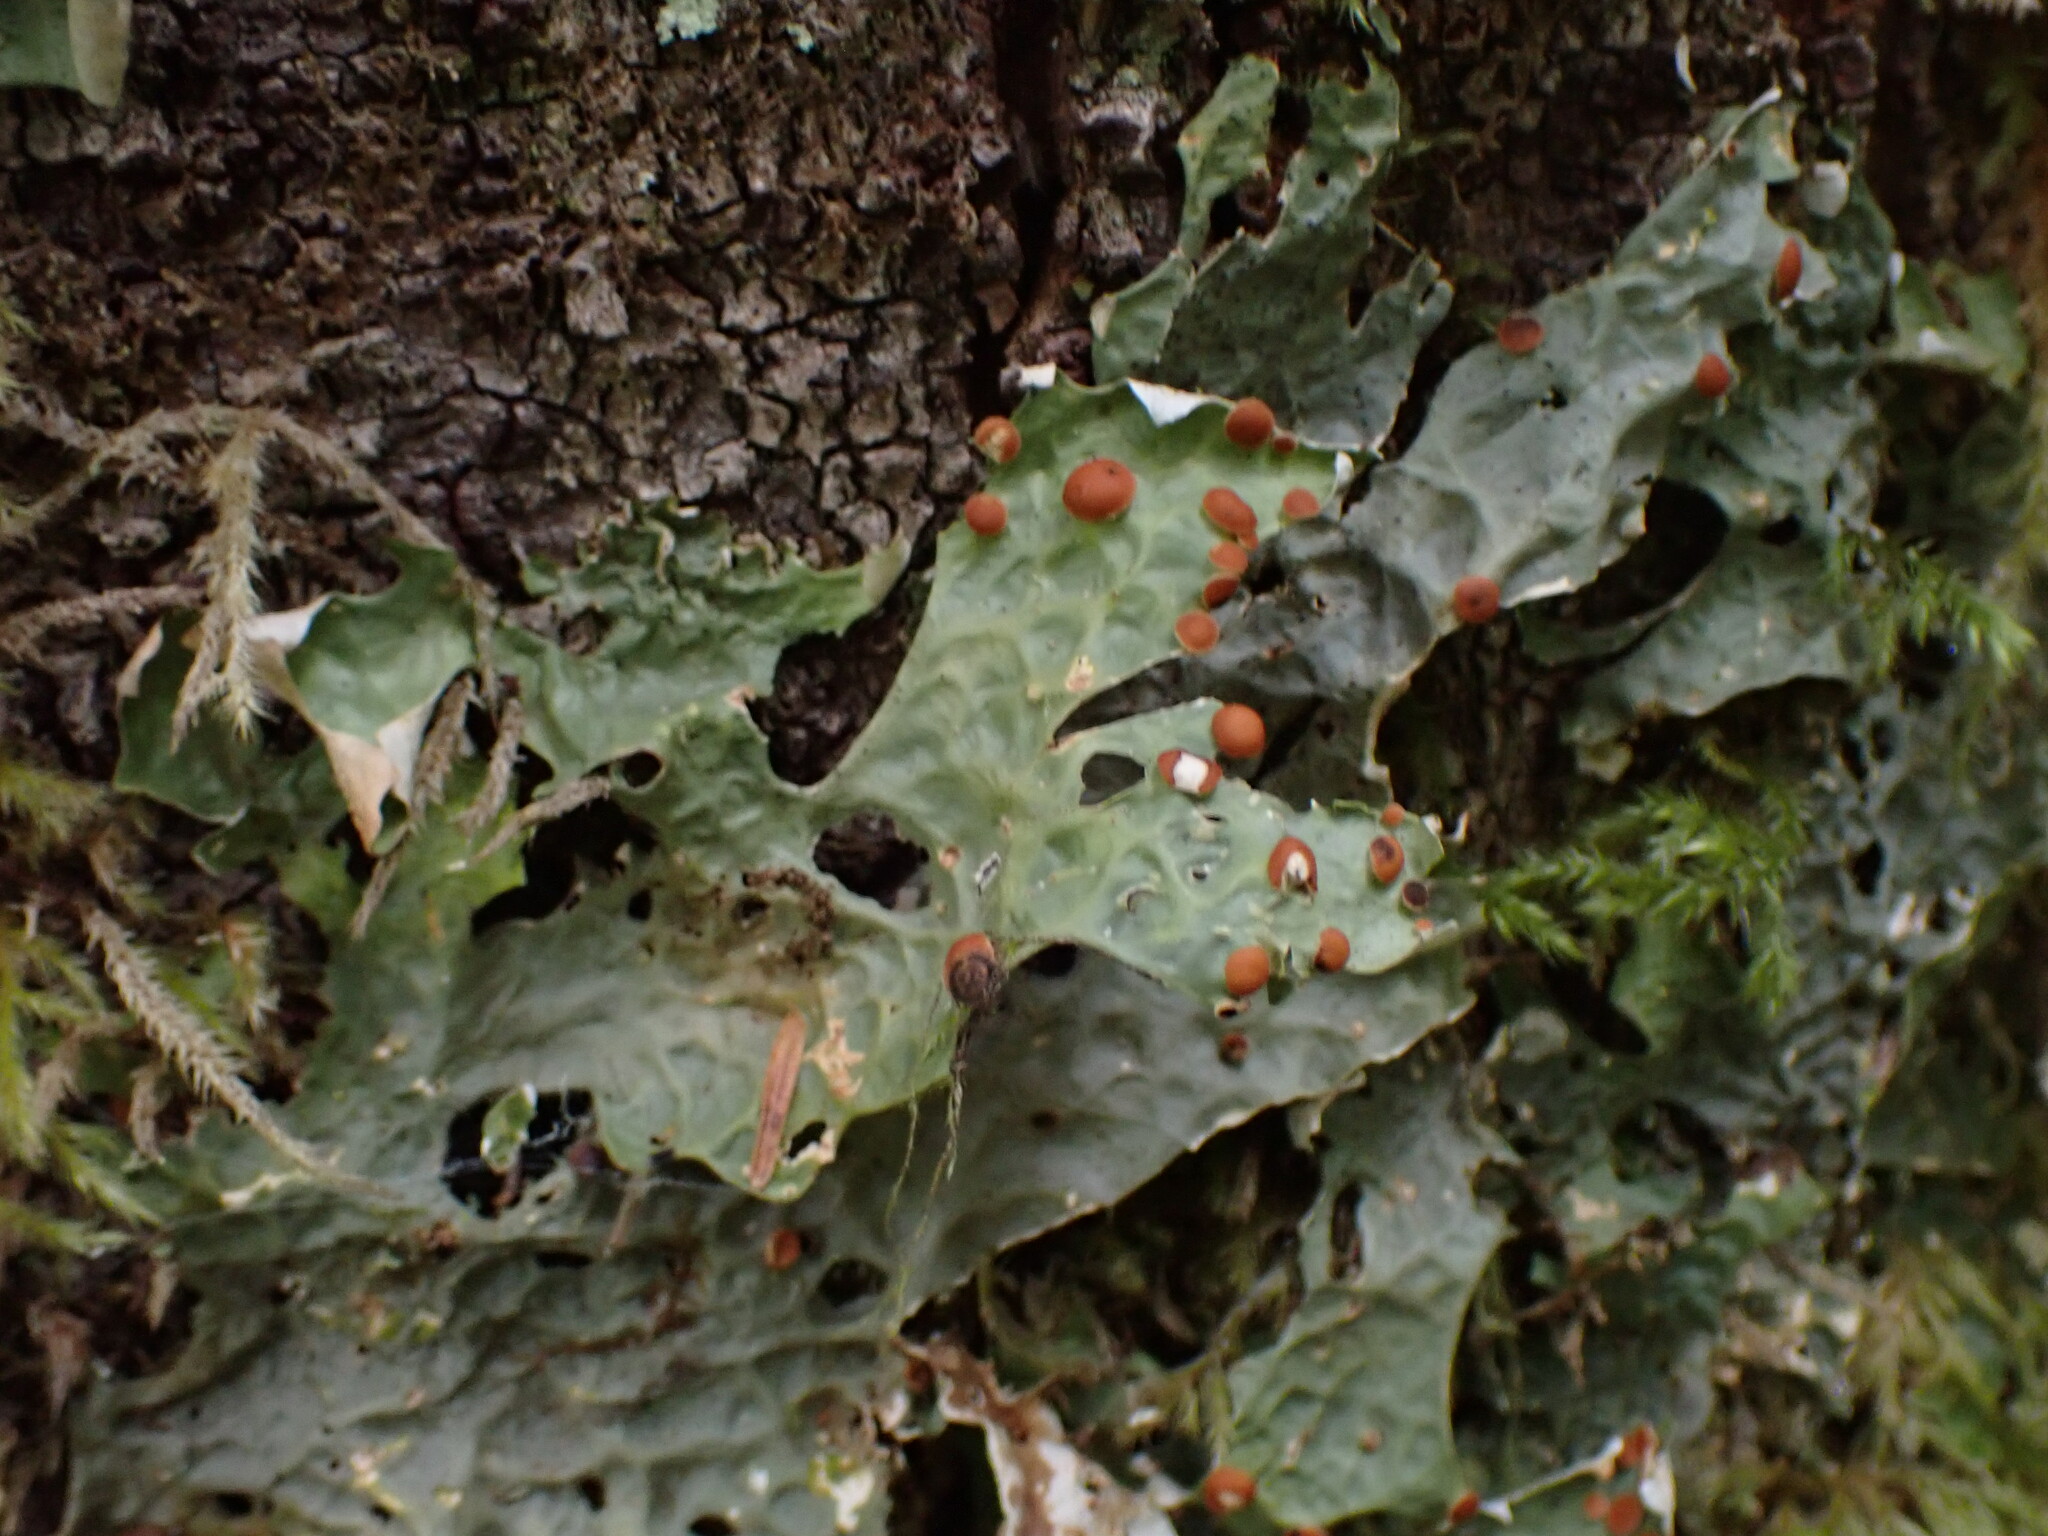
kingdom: Fungi
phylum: Ascomycota
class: Lecanoromycetes
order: Peltigerales
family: Lobariaceae
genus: Lobaria
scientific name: Lobaria linita
